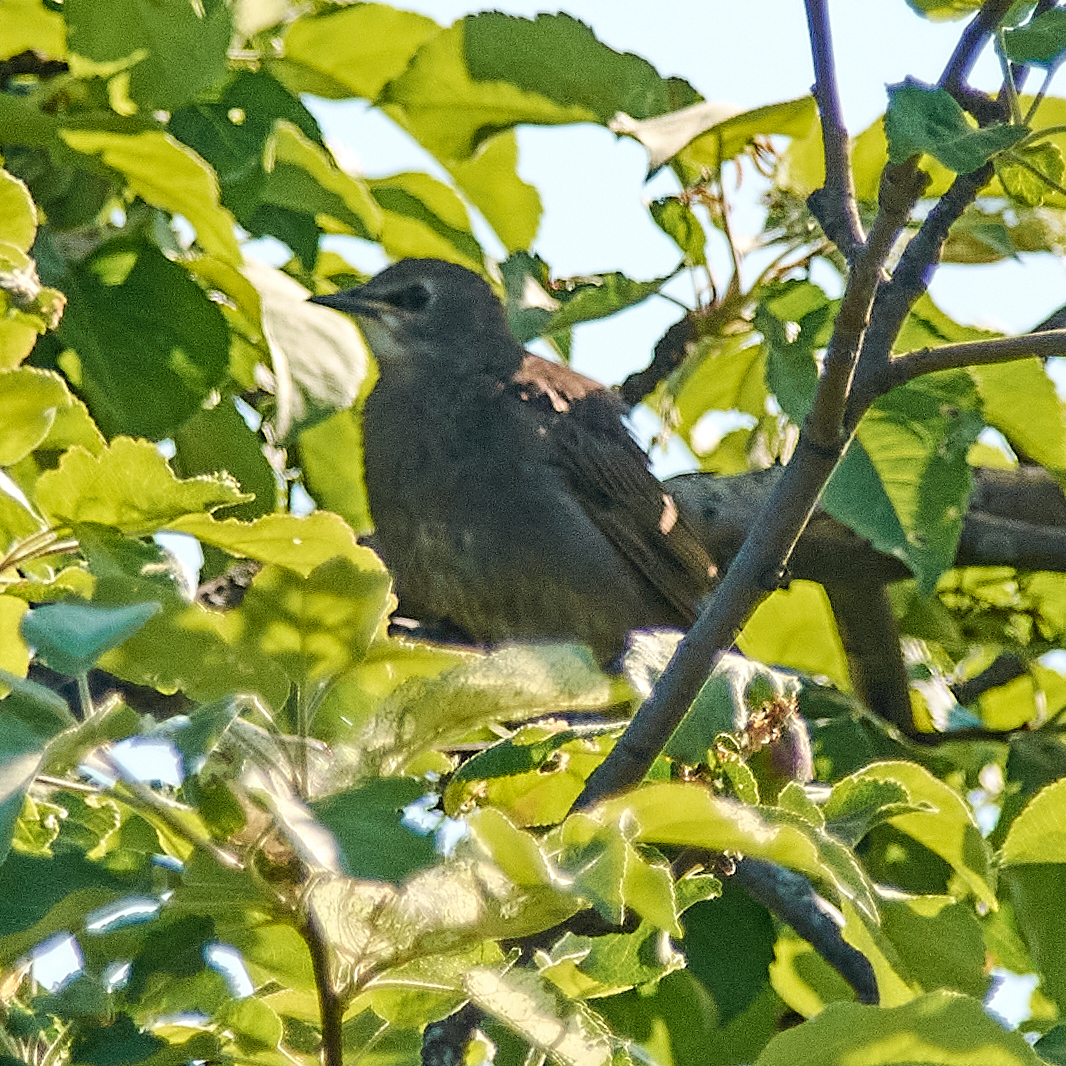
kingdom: Animalia
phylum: Chordata
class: Aves
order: Passeriformes
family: Sturnidae
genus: Sturnus
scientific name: Sturnus vulgaris
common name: Common starling
